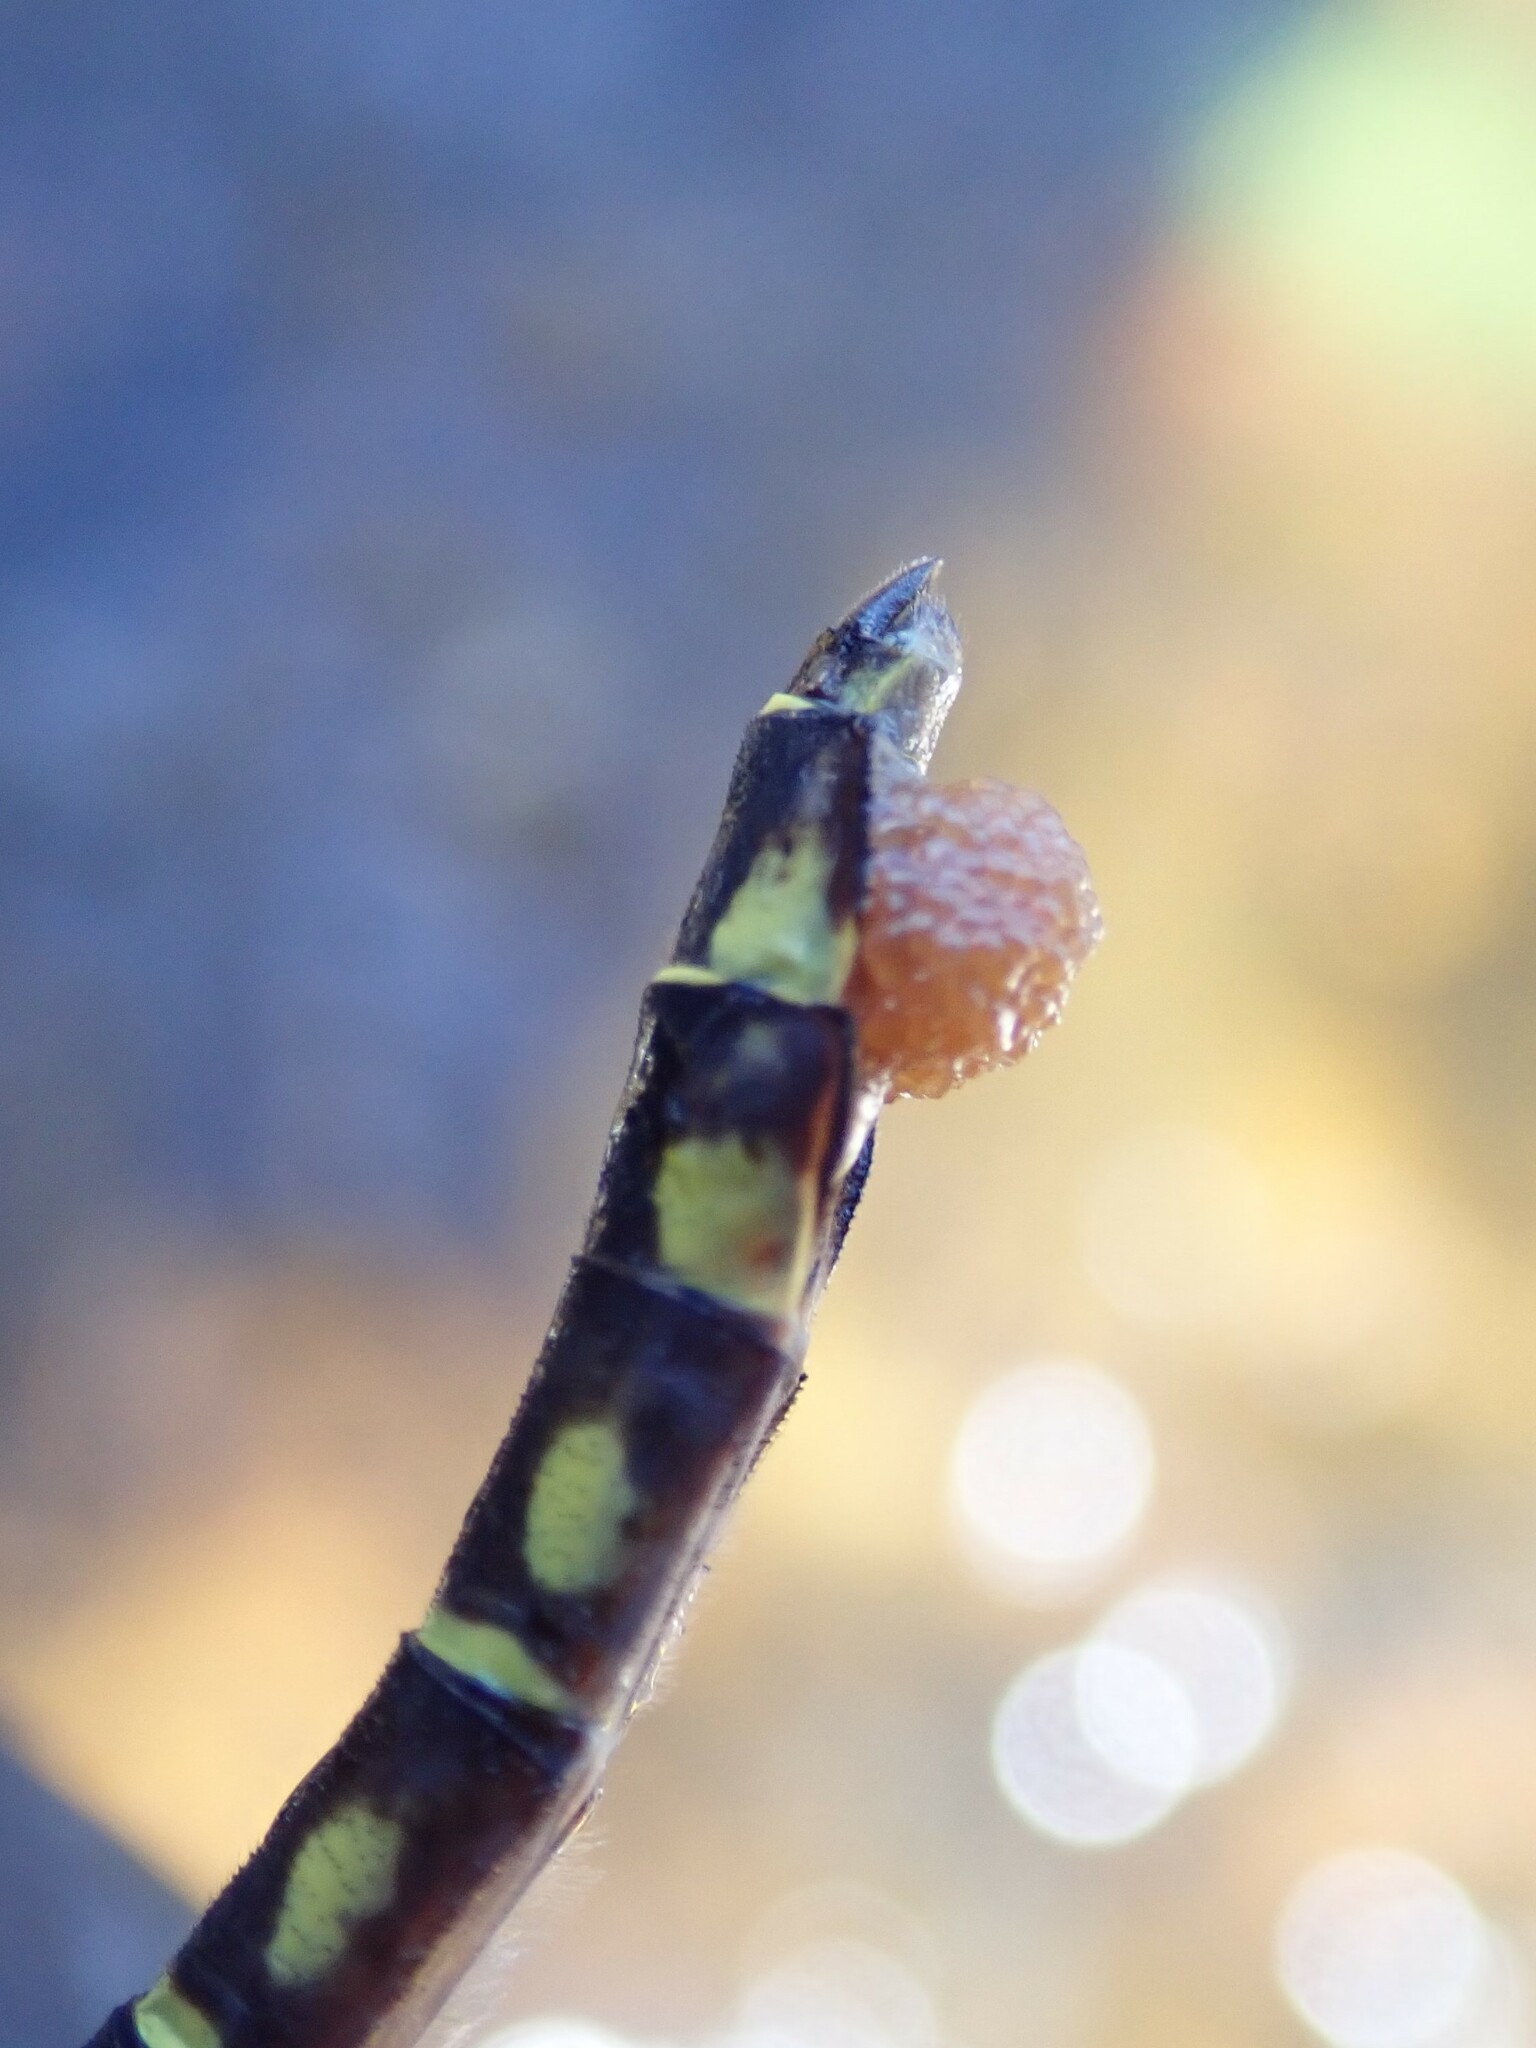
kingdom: Animalia
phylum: Arthropoda
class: Insecta
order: Odonata
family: Gomphidae
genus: Stylurus
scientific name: Stylurus scudderi
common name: Zebra clubtail
